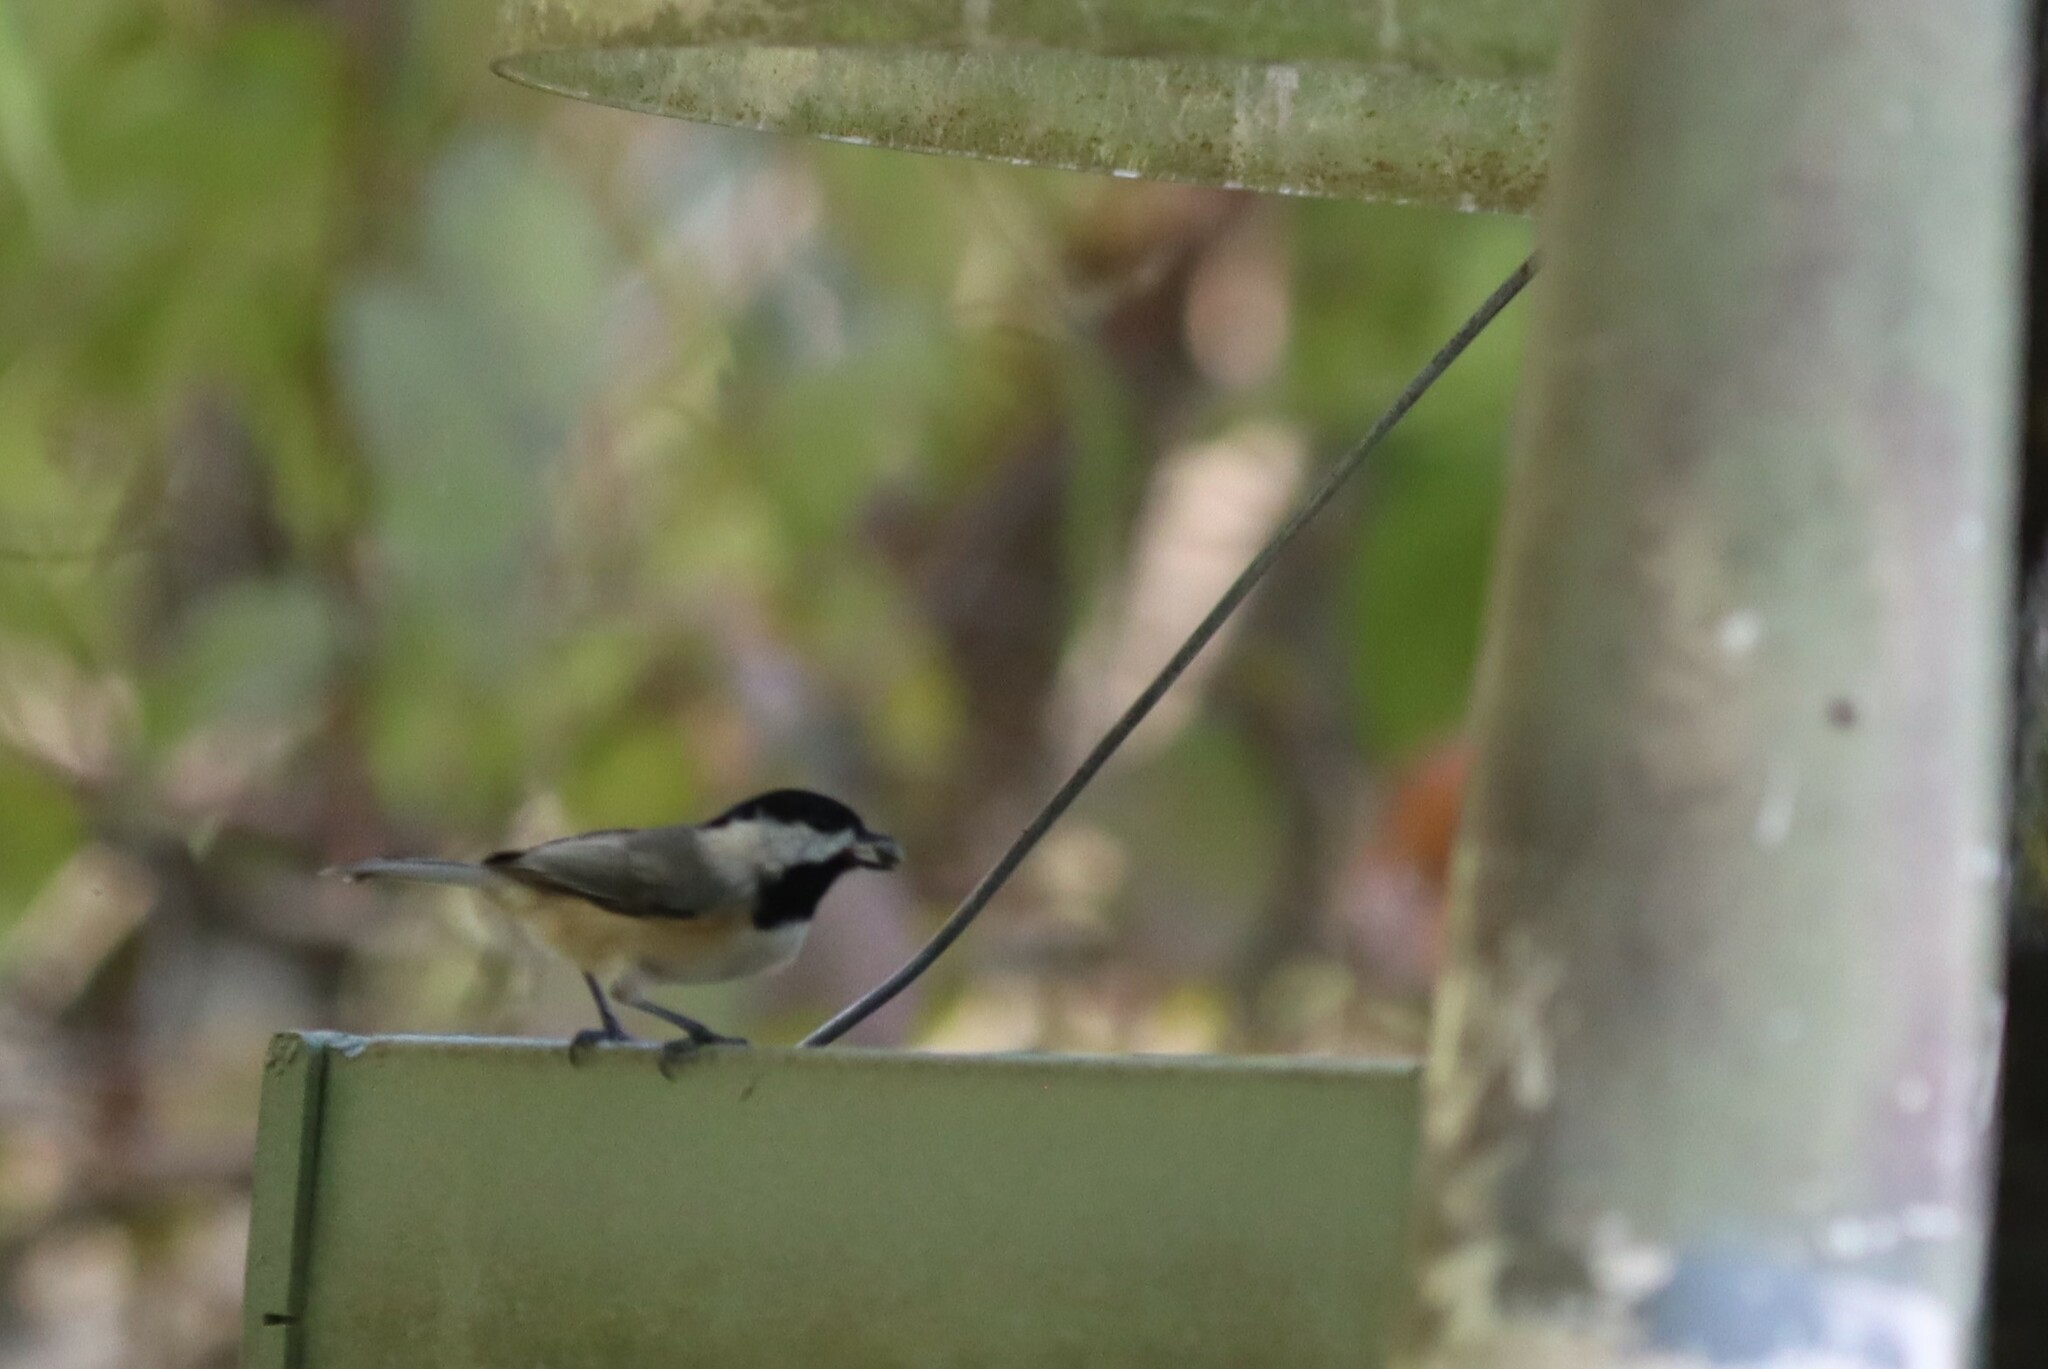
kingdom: Animalia
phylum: Chordata
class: Aves
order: Passeriformes
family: Paridae
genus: Poecile
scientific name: Poecile carolinensis
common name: Carolina chickadee
